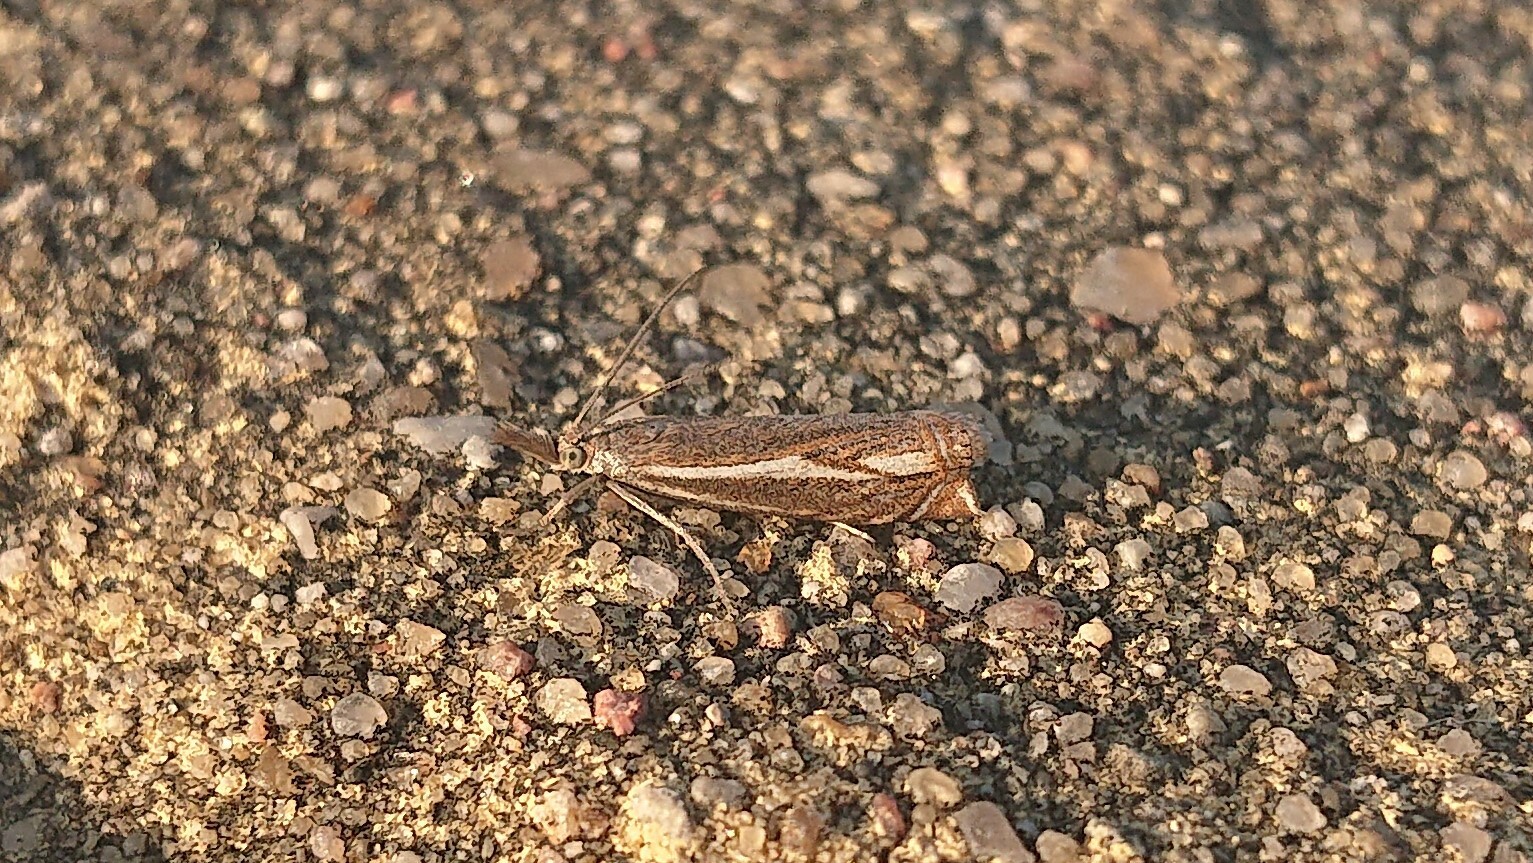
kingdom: Animalia
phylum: Arthropoda
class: Insecta
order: Lepidoptera
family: Crambidae
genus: Crambus
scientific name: Crambus nemorella
